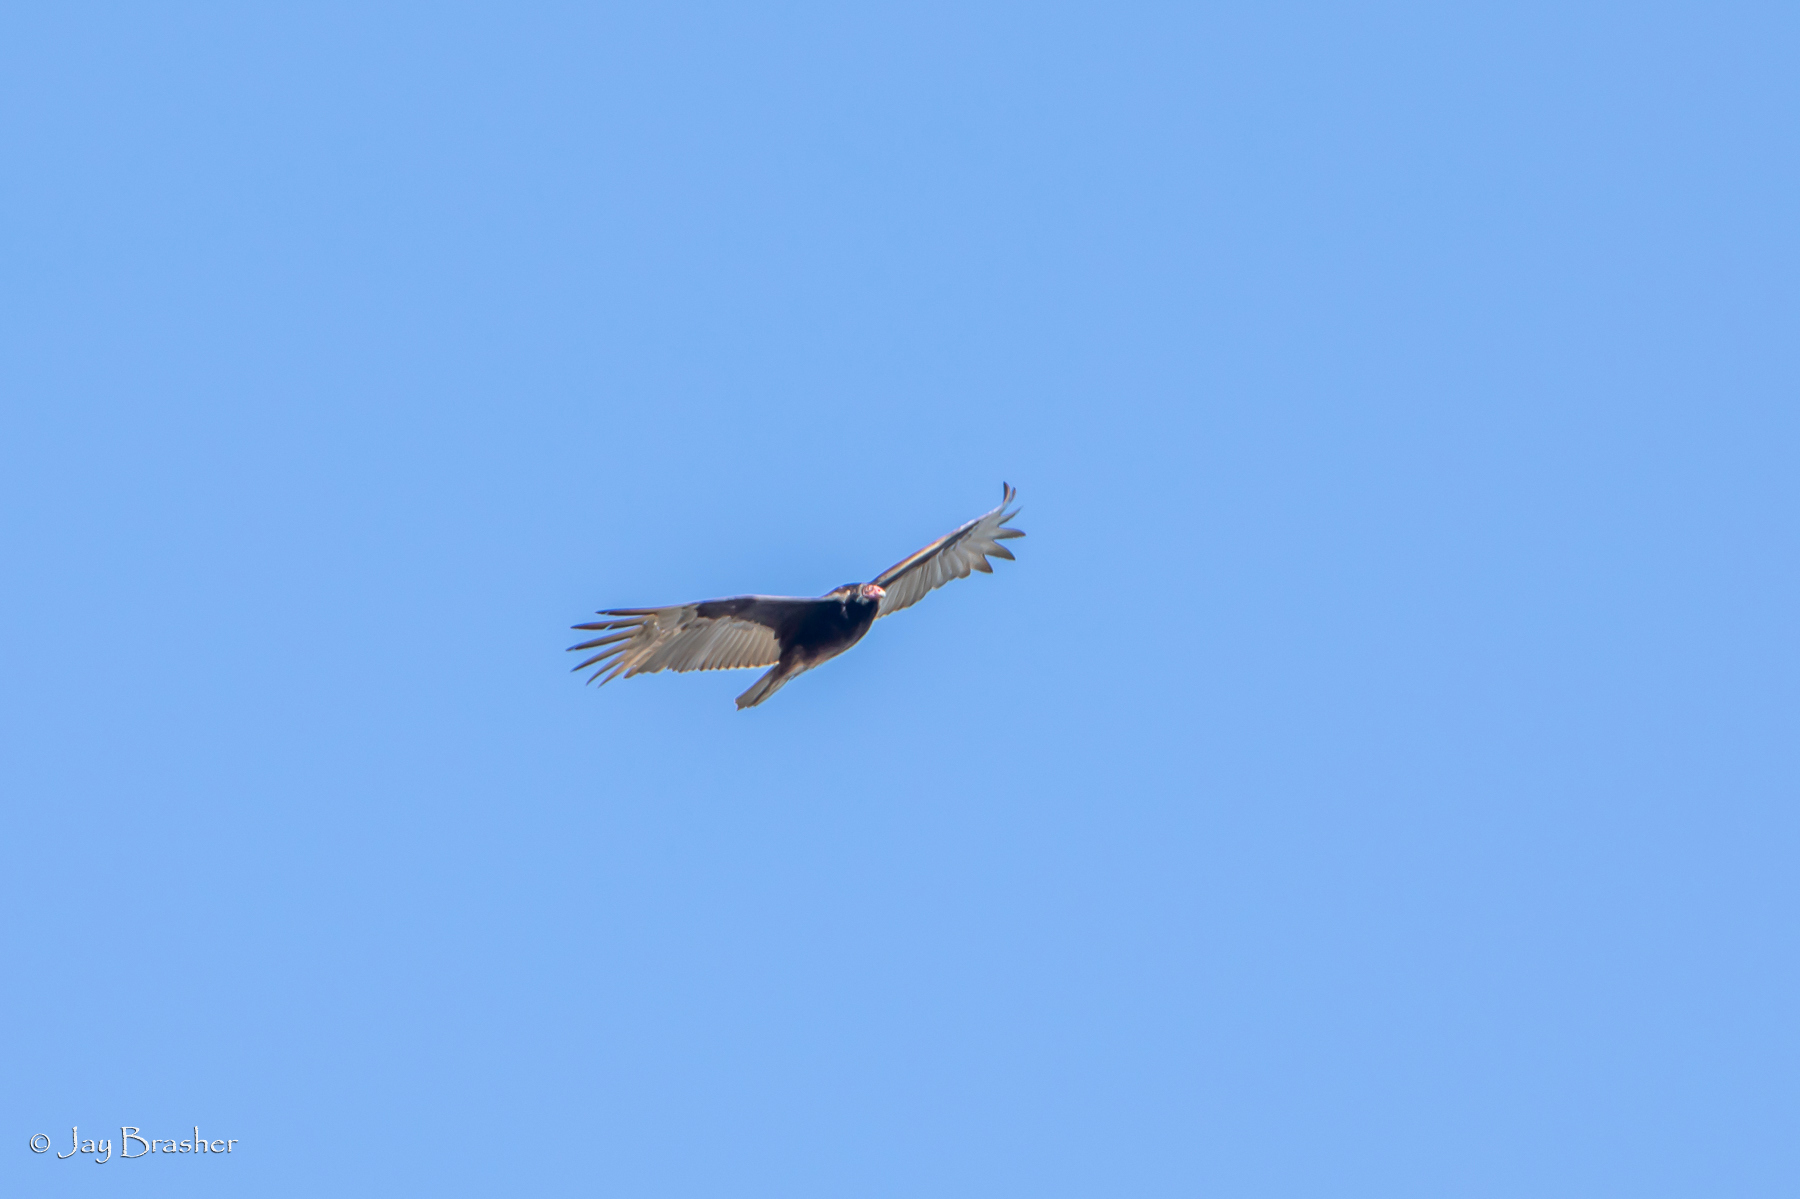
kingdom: Animalia
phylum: Chordata
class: Aves
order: Accipitriformes
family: Cathartidae
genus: Cathartes
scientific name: Cathartes aura
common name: Turkey vulture
